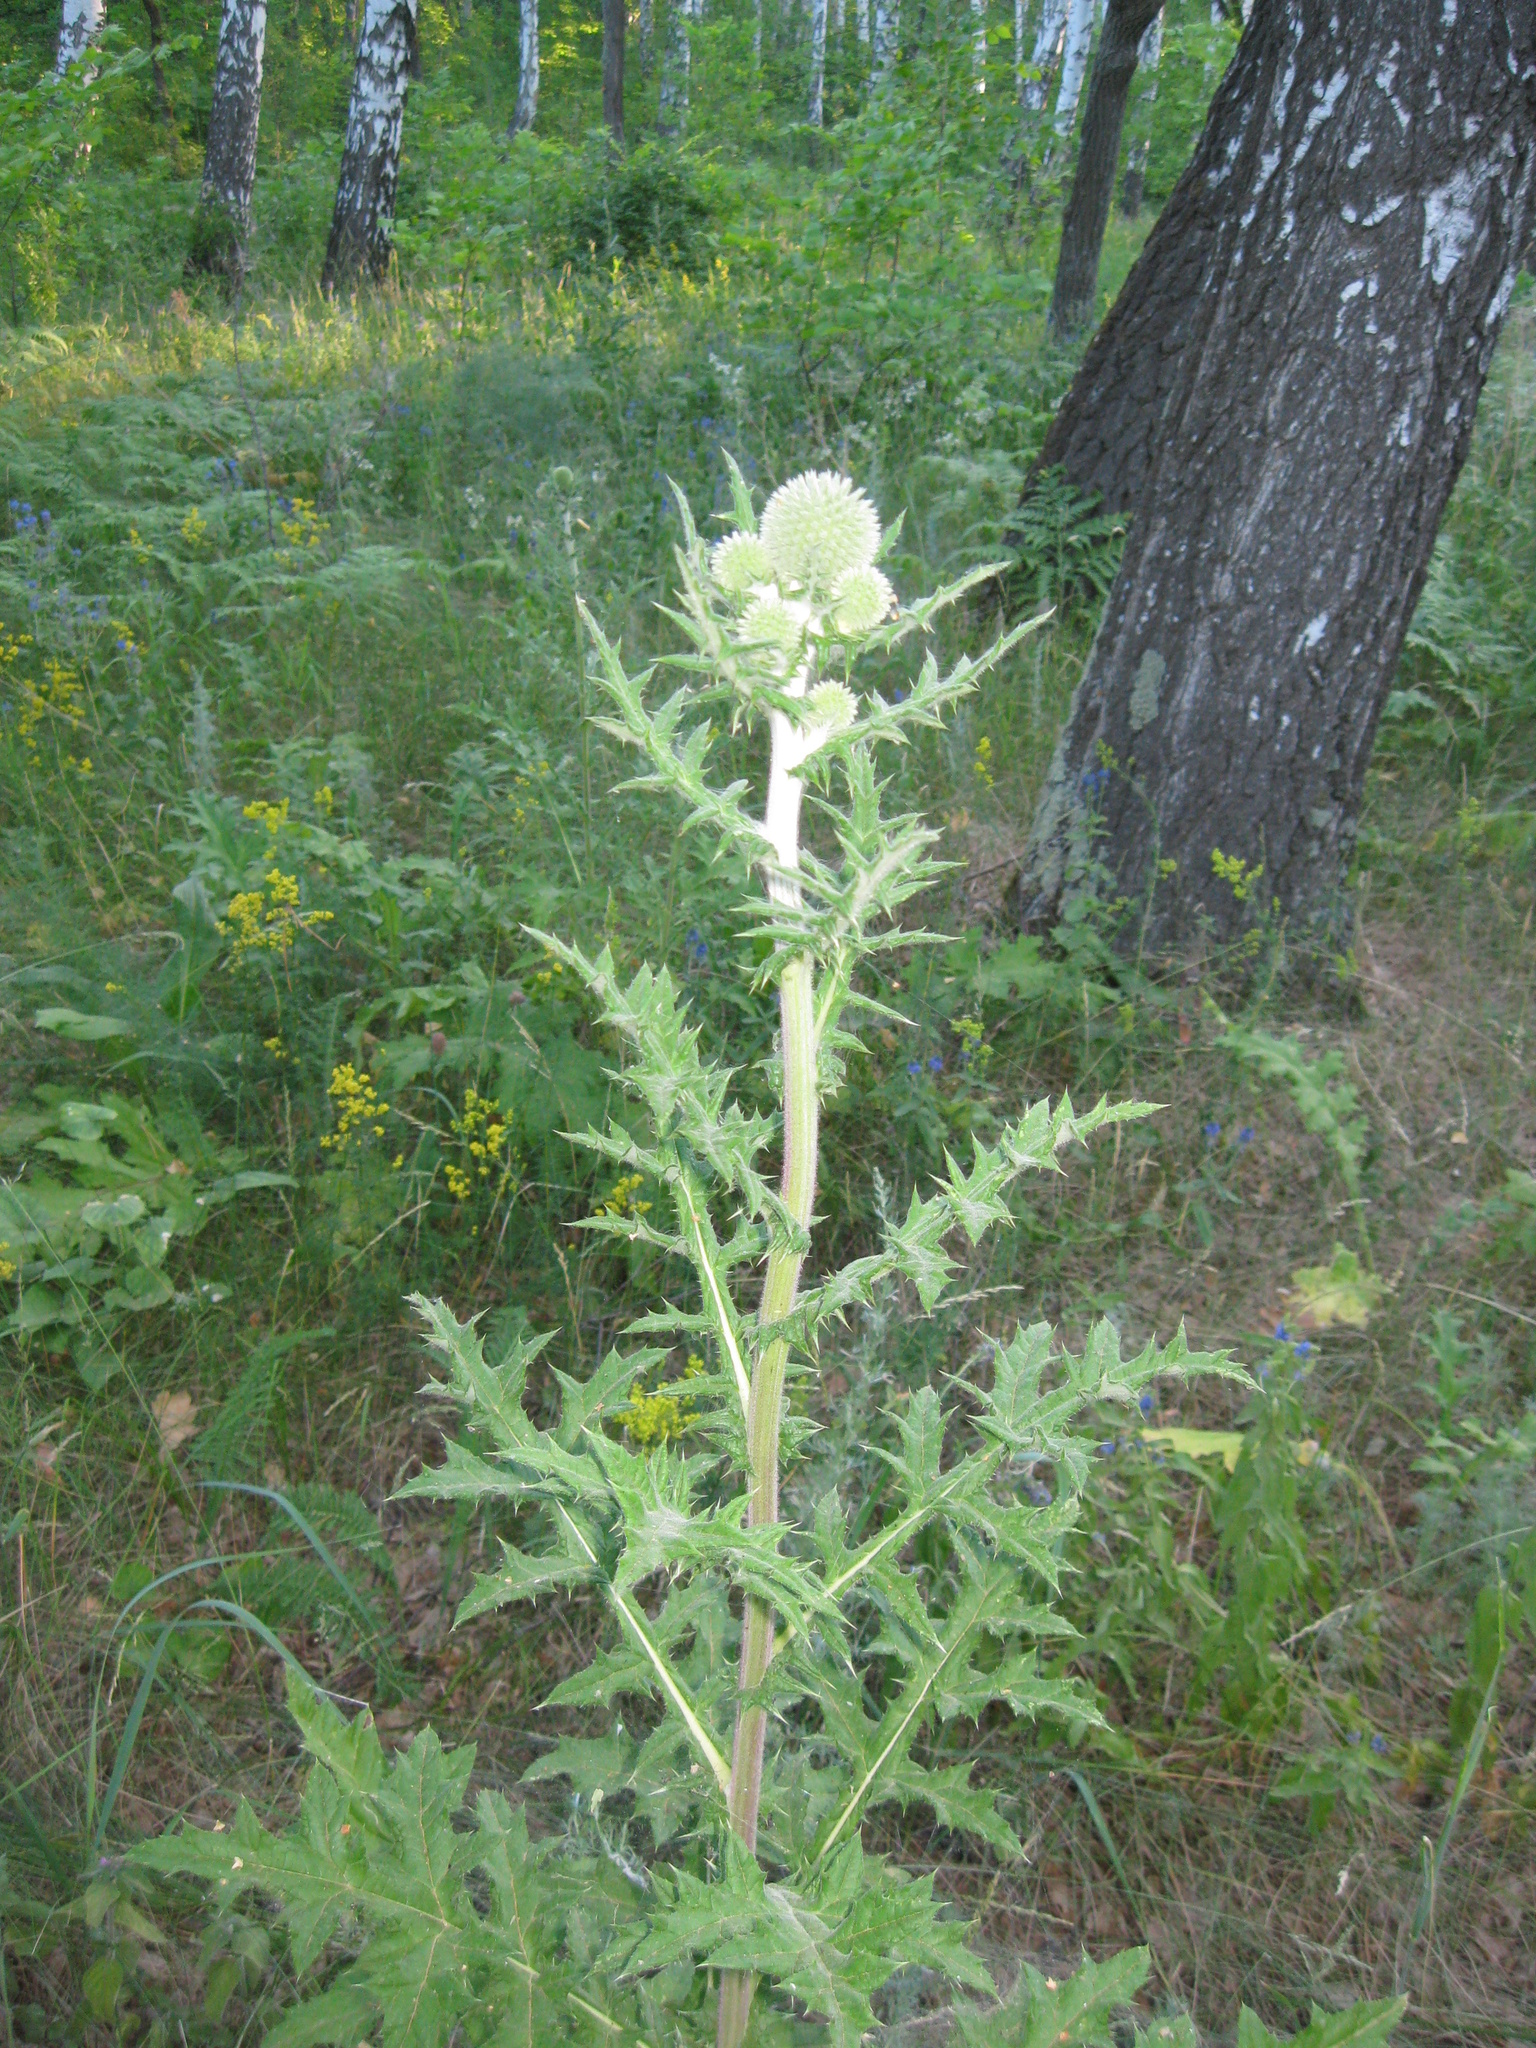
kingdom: Plantae
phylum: Tracheophyta
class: Magnoliopsida
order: Asterales
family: Asteraceae
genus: Echinops
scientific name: Echinops sphaerocephalus
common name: Glandular globe-thistle
